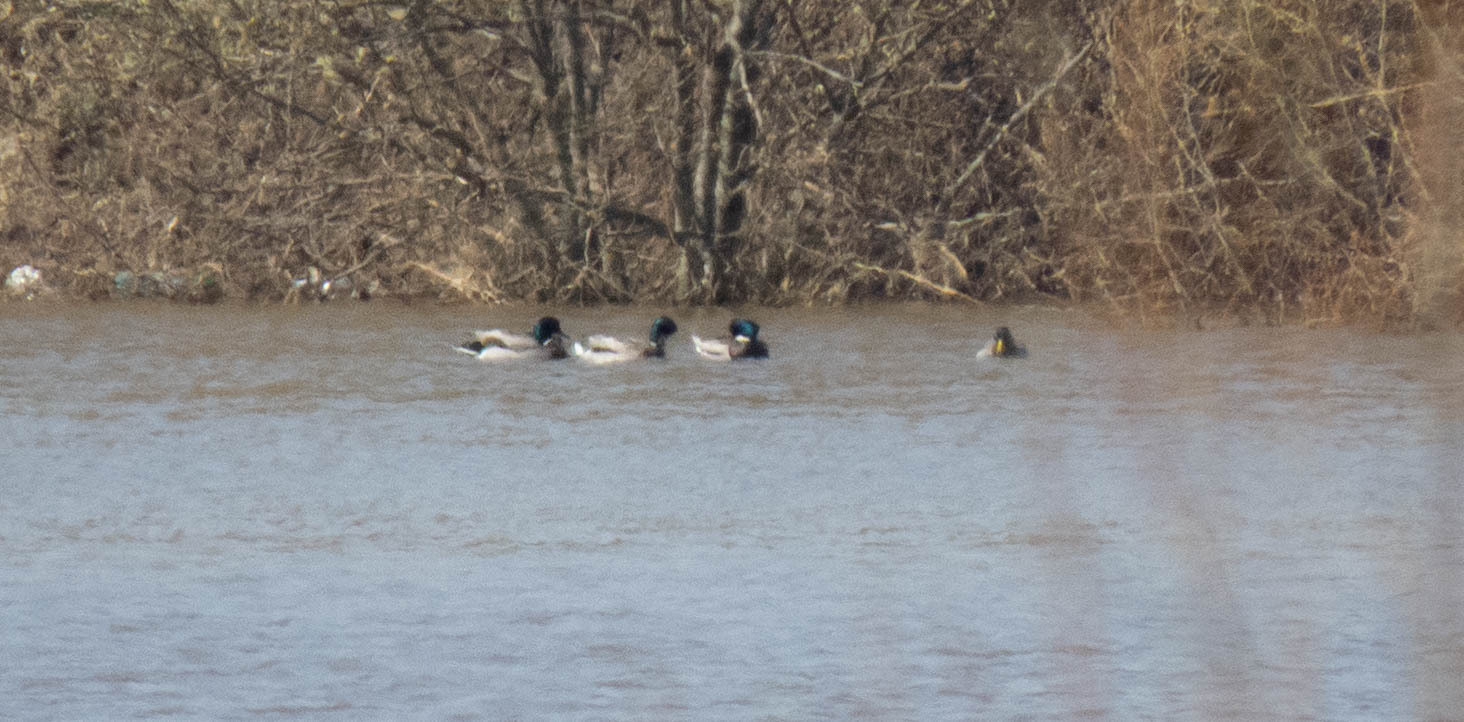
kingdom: Animalia
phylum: Chordata
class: Aves
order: Anseriformes
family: Anatidae
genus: Anas
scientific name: Anas platyrhynchos
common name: Mallard
